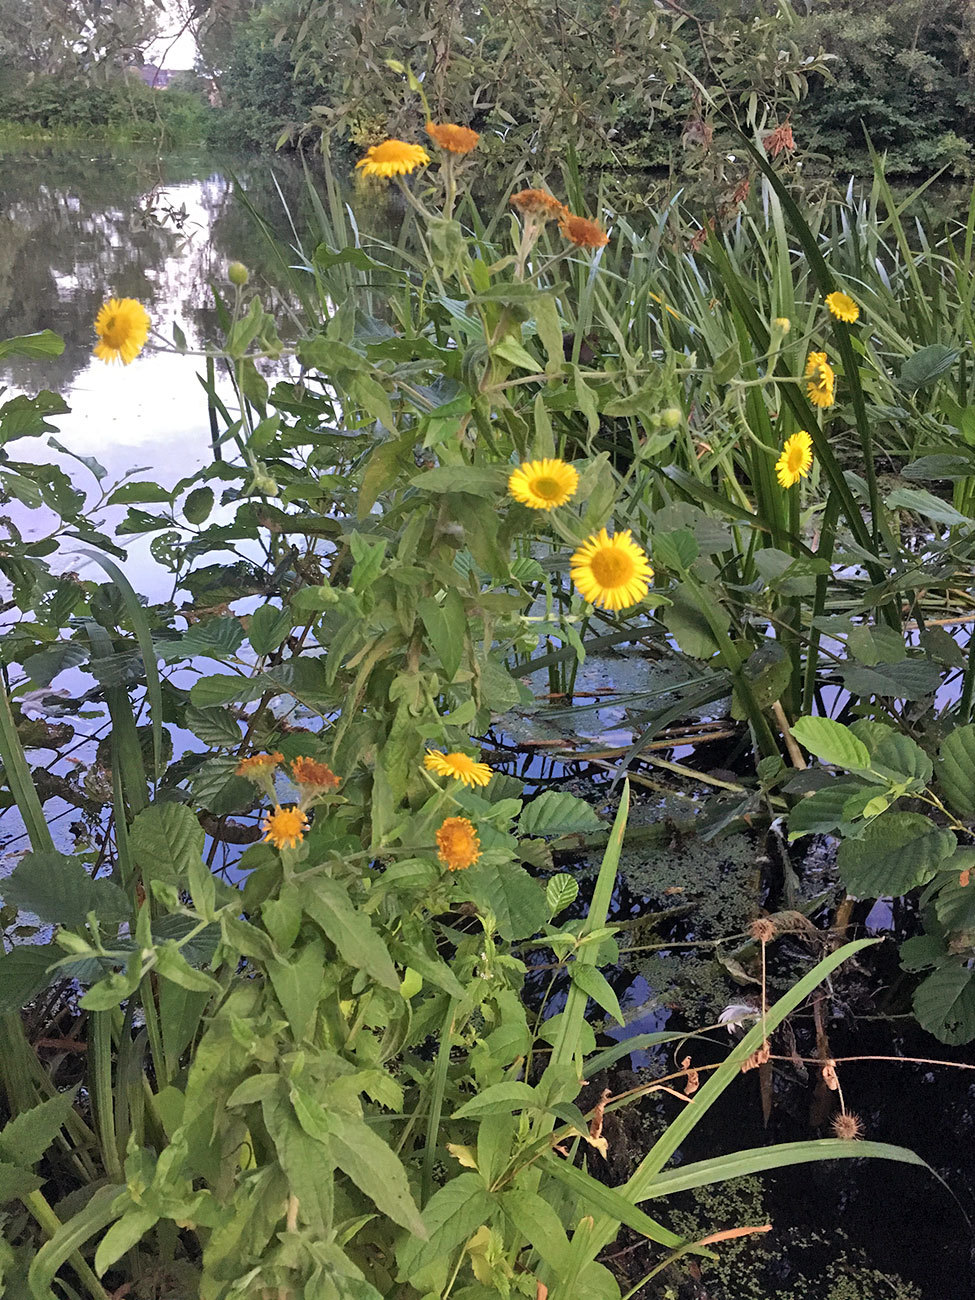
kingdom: Plantae
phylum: Tracheophyta
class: Magnoliopsida
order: Asterales
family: Asteraceae
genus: Pulicaria
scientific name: Pulicaria dysenterica
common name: Common fleabane
